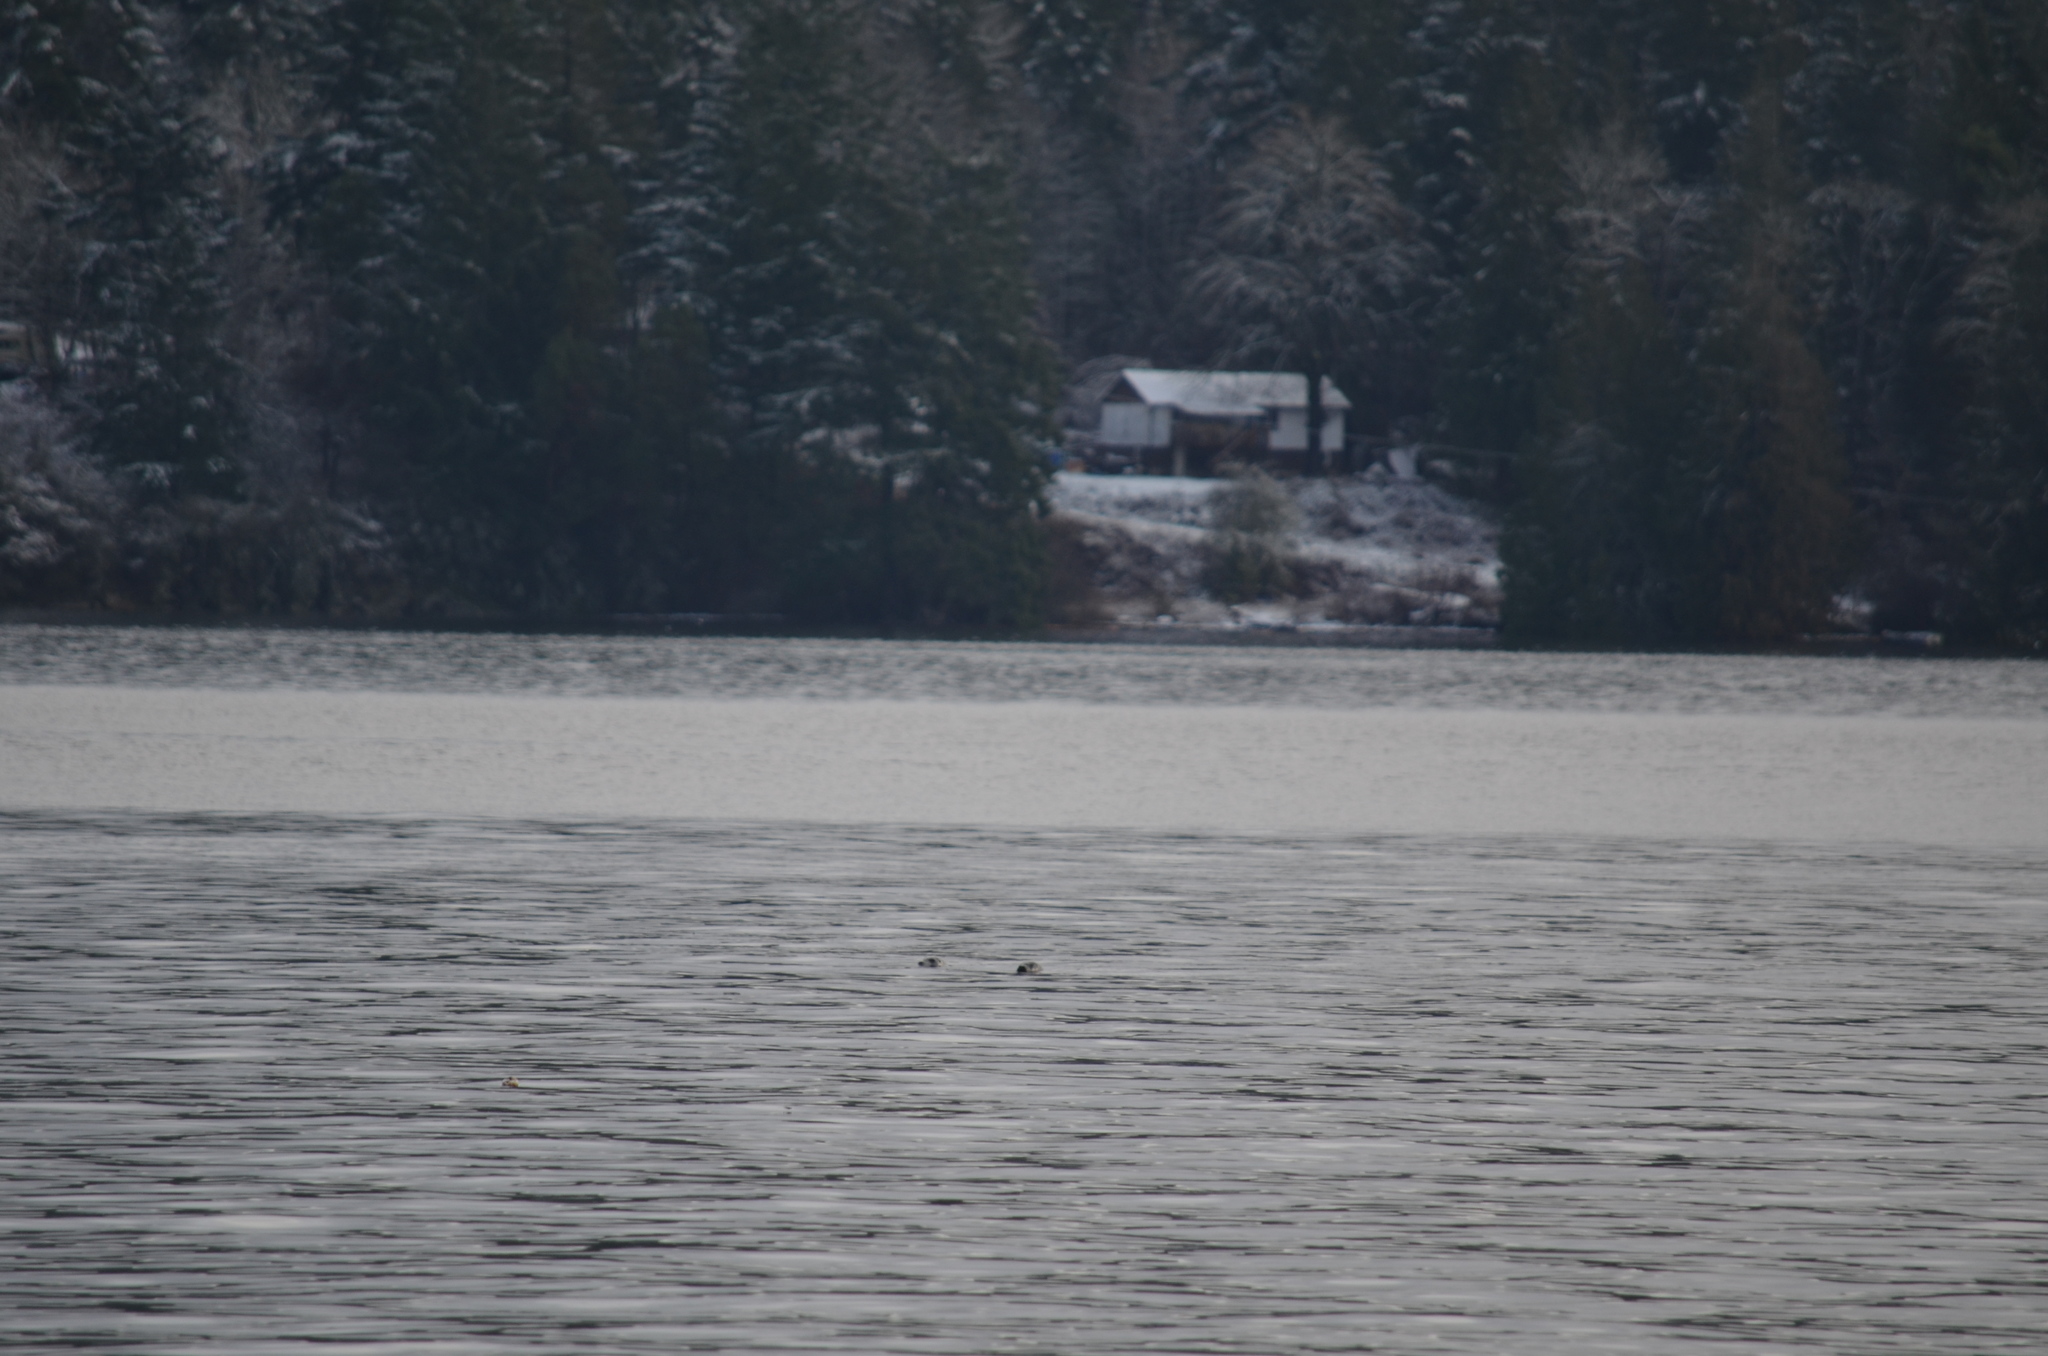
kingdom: Animalia
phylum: Chordata
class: Mammalia
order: Carnivora
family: Phocidae
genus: Phoca
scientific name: Phoca vitulina
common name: Harbor seal
